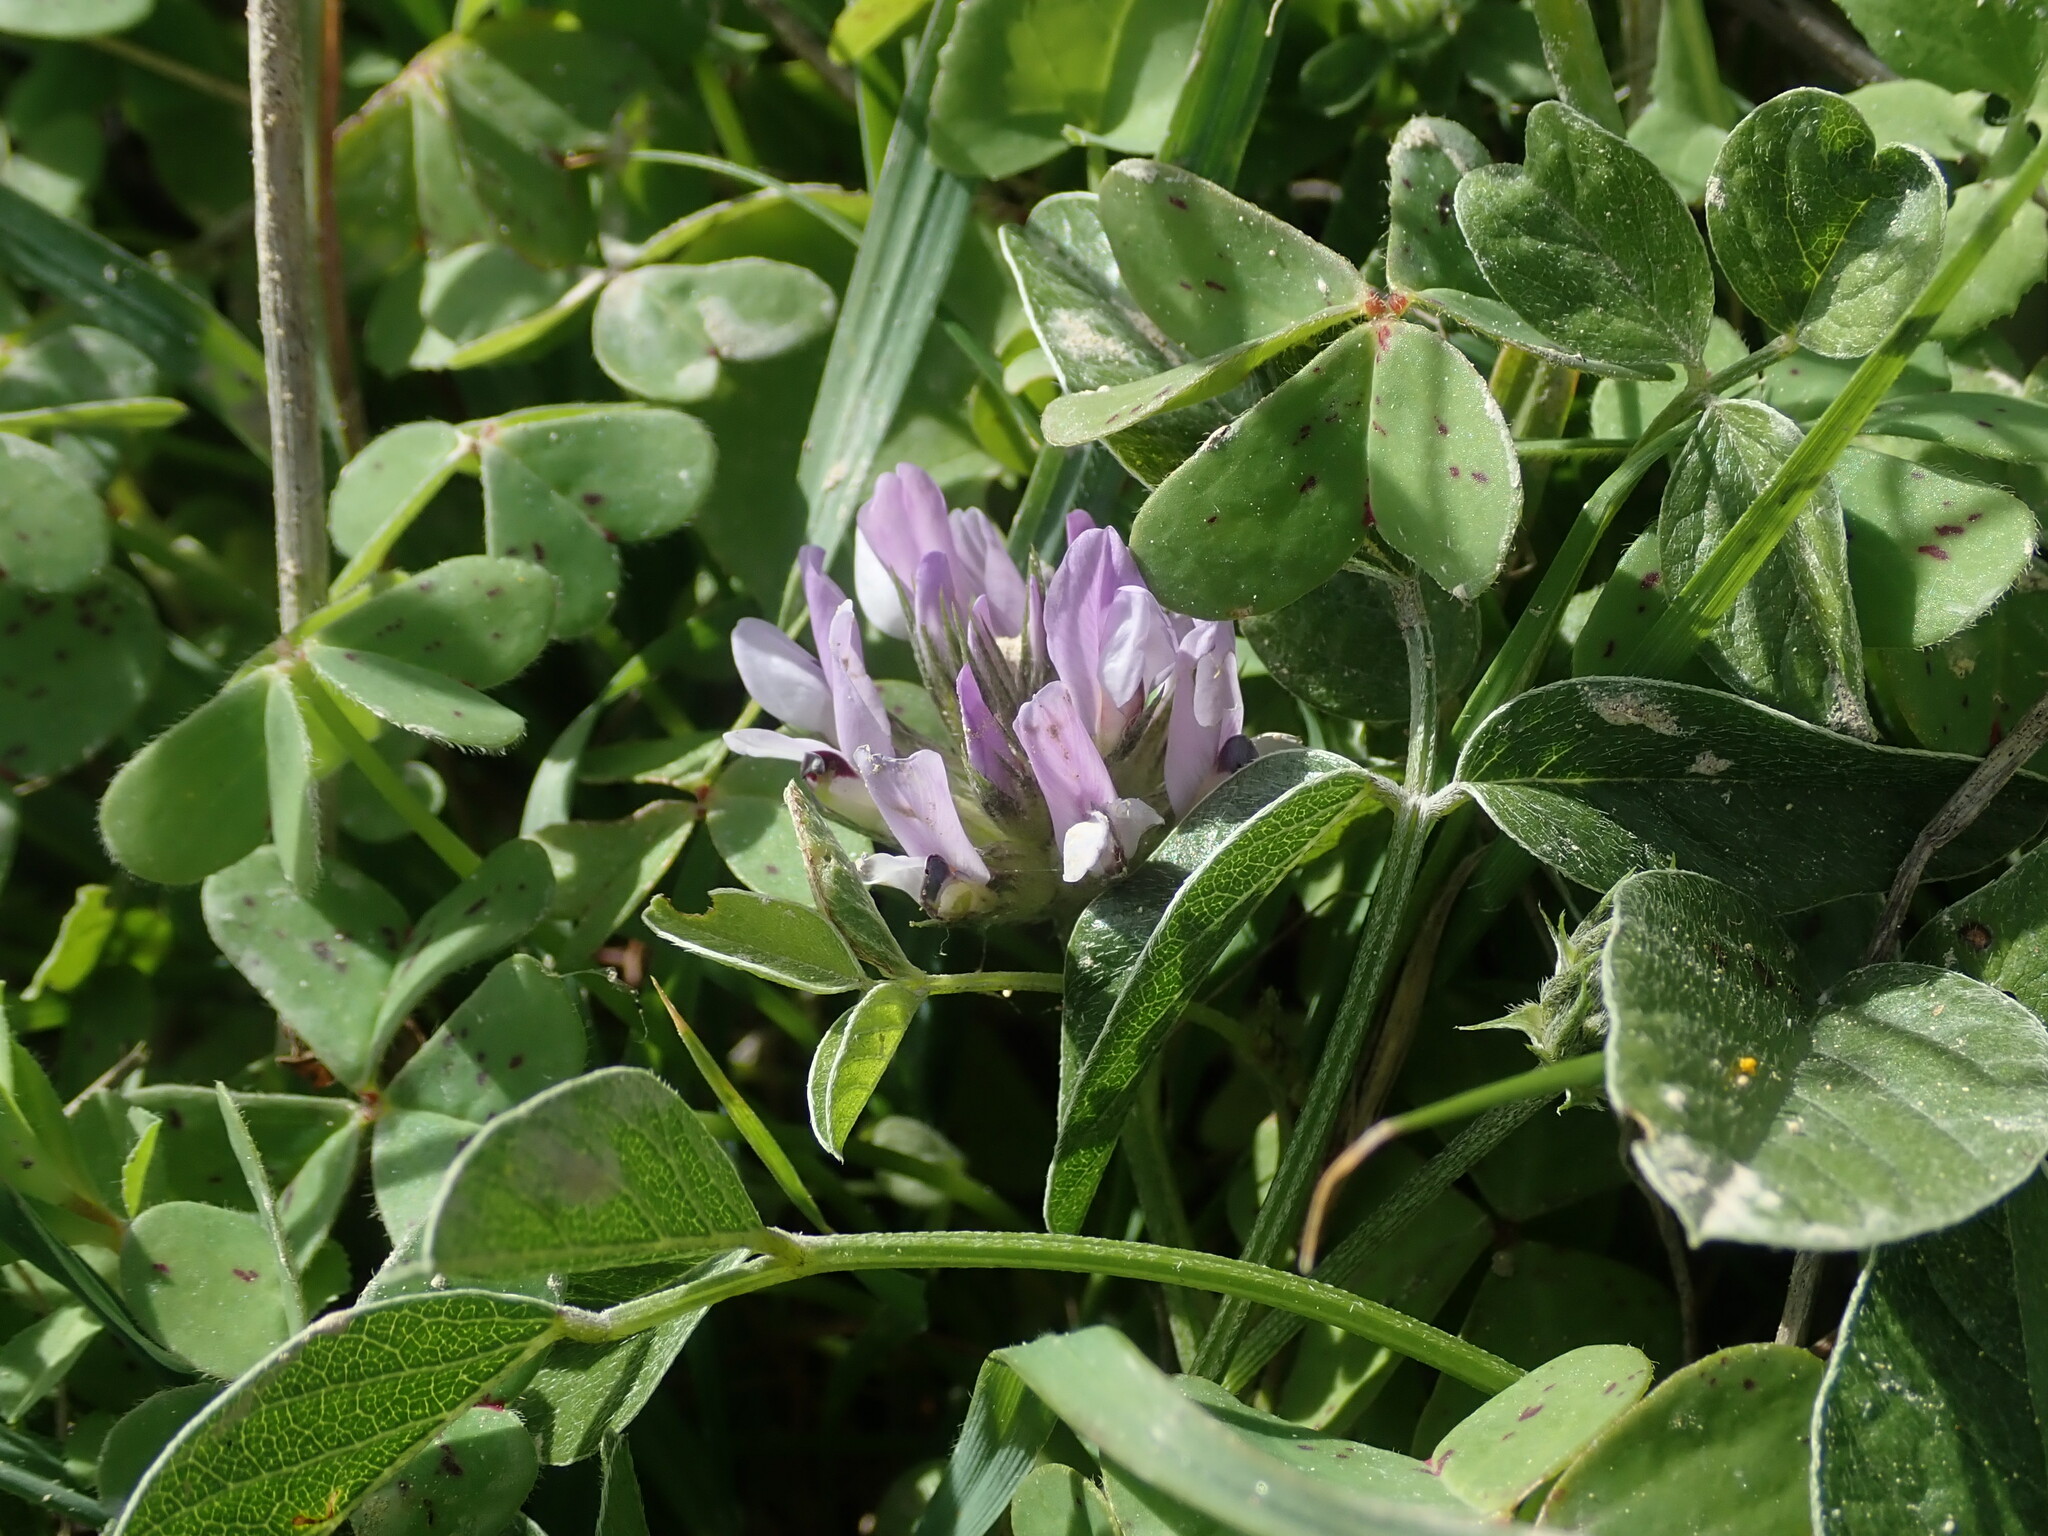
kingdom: Plantae
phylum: Tracheophyta
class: Magnoliopsida
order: Fabales
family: Fabaceae
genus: Bituminaria
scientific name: Bituminaria bituminosa
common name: Arabian pea
